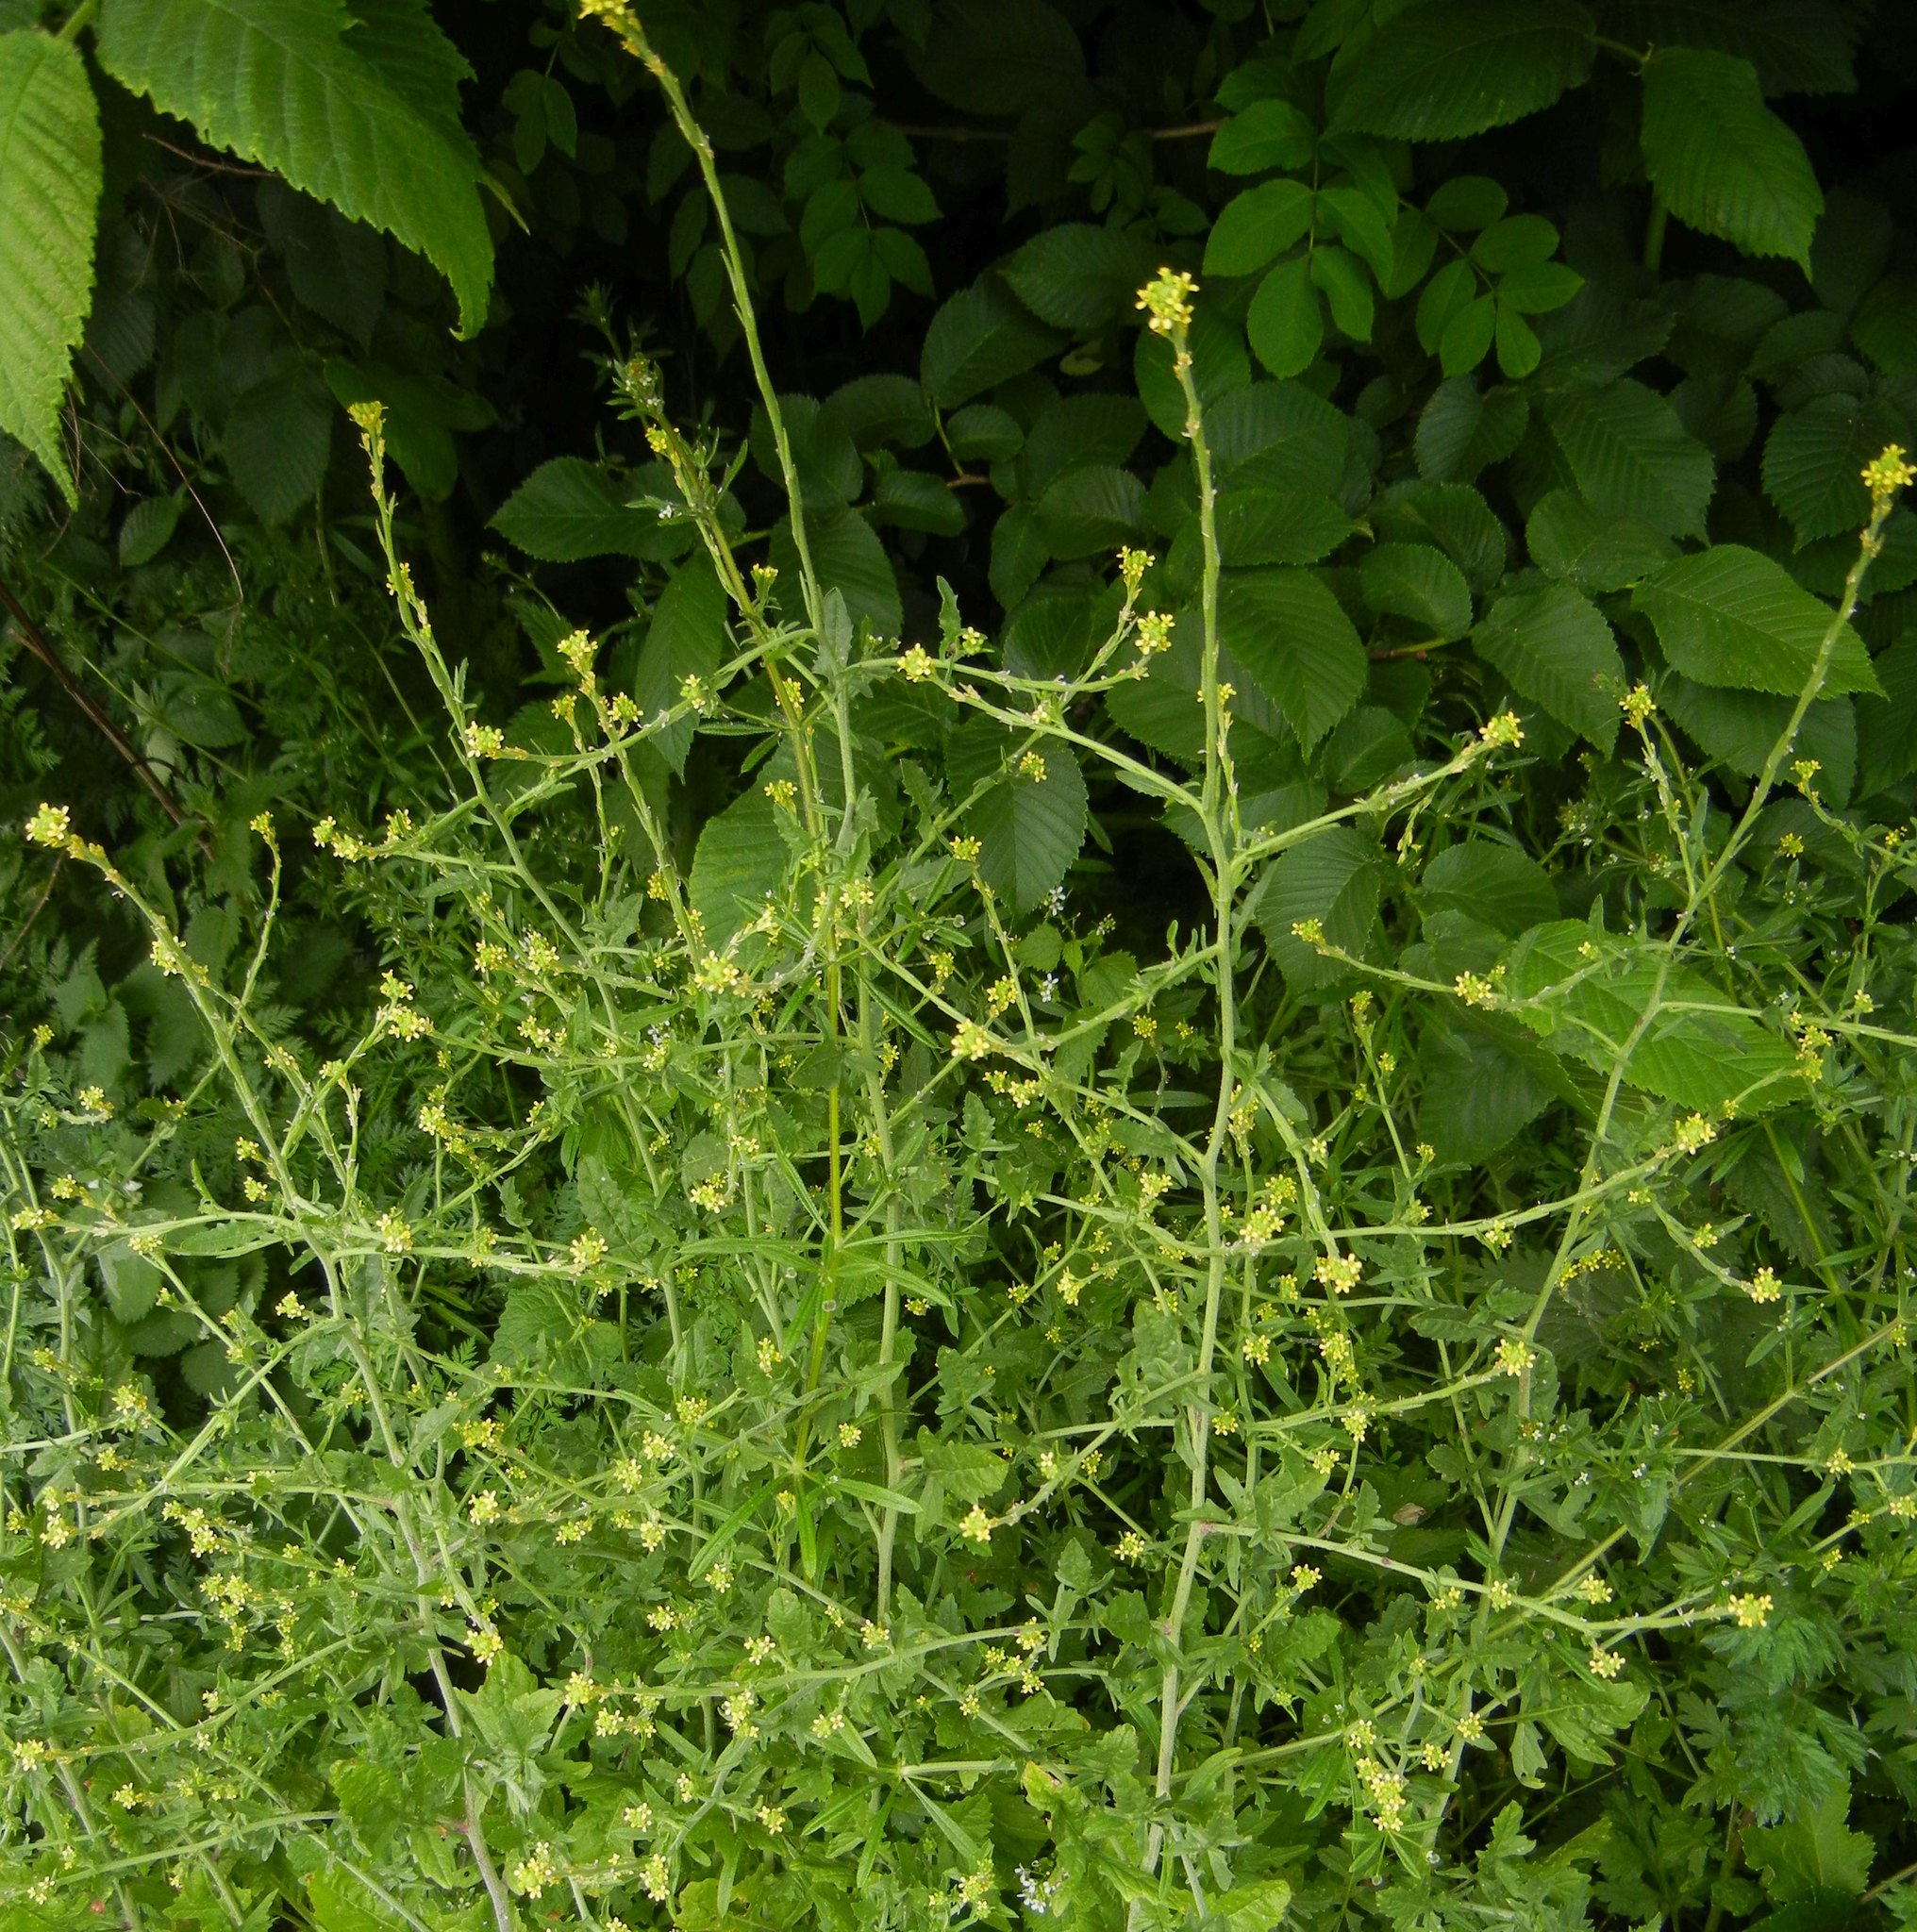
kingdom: Plantae
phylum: Tracheophyta
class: Magnoliopsida
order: Brassicales
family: Brassicaceae
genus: Sisymbrium
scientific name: Sisymbrium officinale
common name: Hedge mustard
